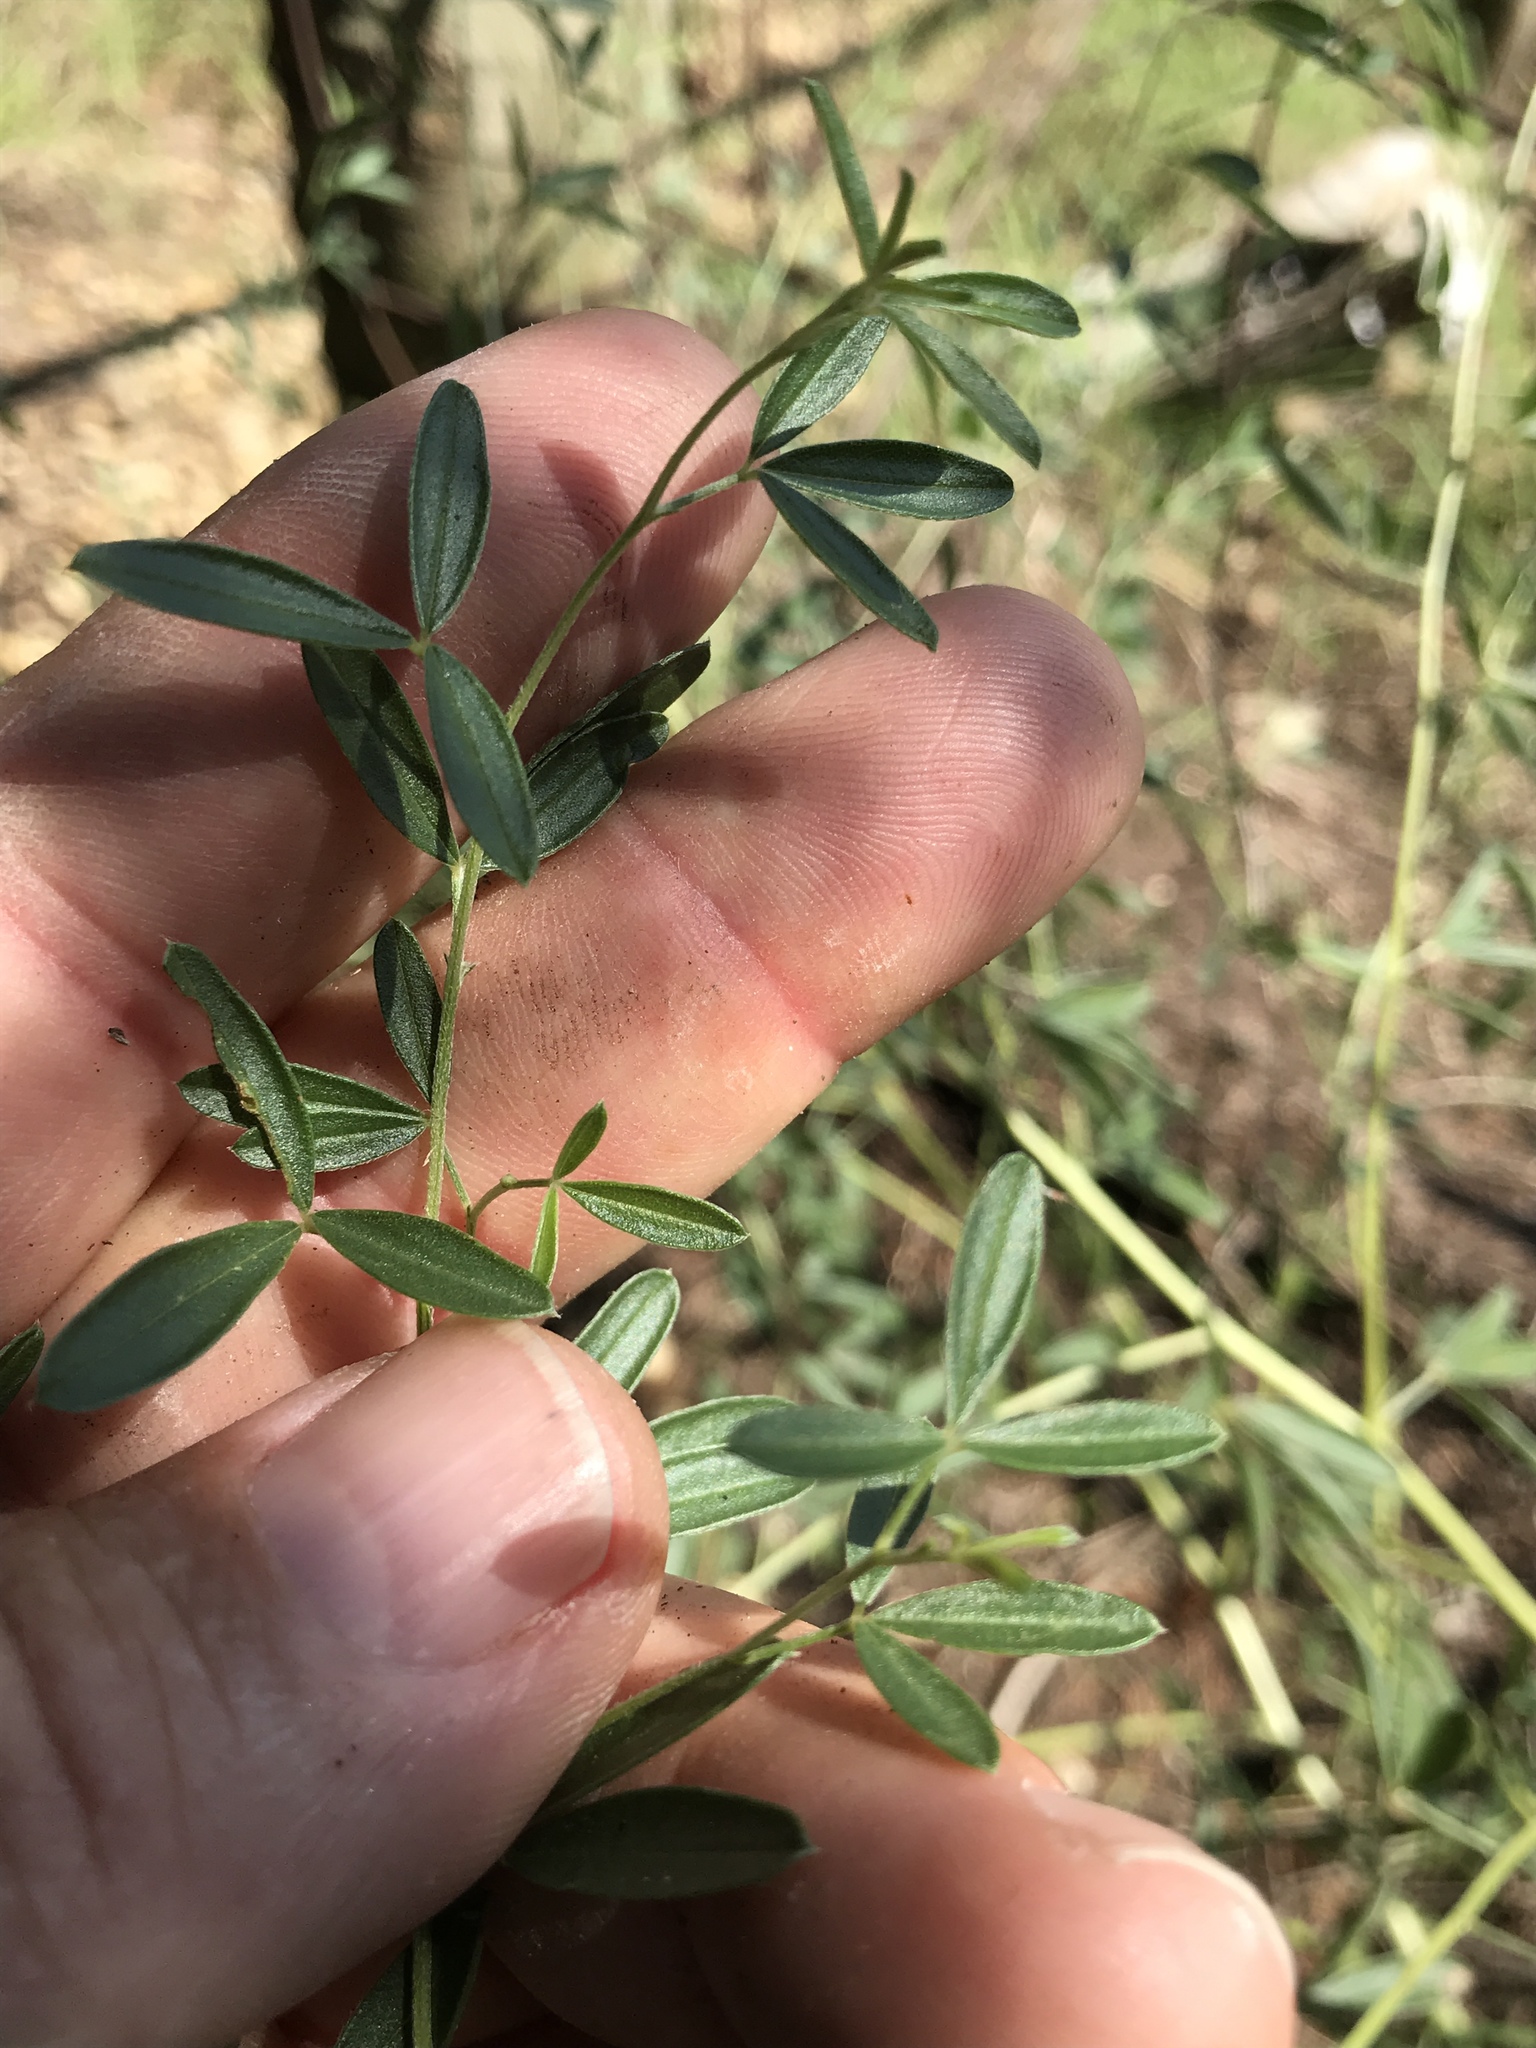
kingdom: Plantae
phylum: Tracheophyta
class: Magnoliopsida
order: Fabales
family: Fabaceae
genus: Pediomelum
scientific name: Pediomelum tenuiflorum
